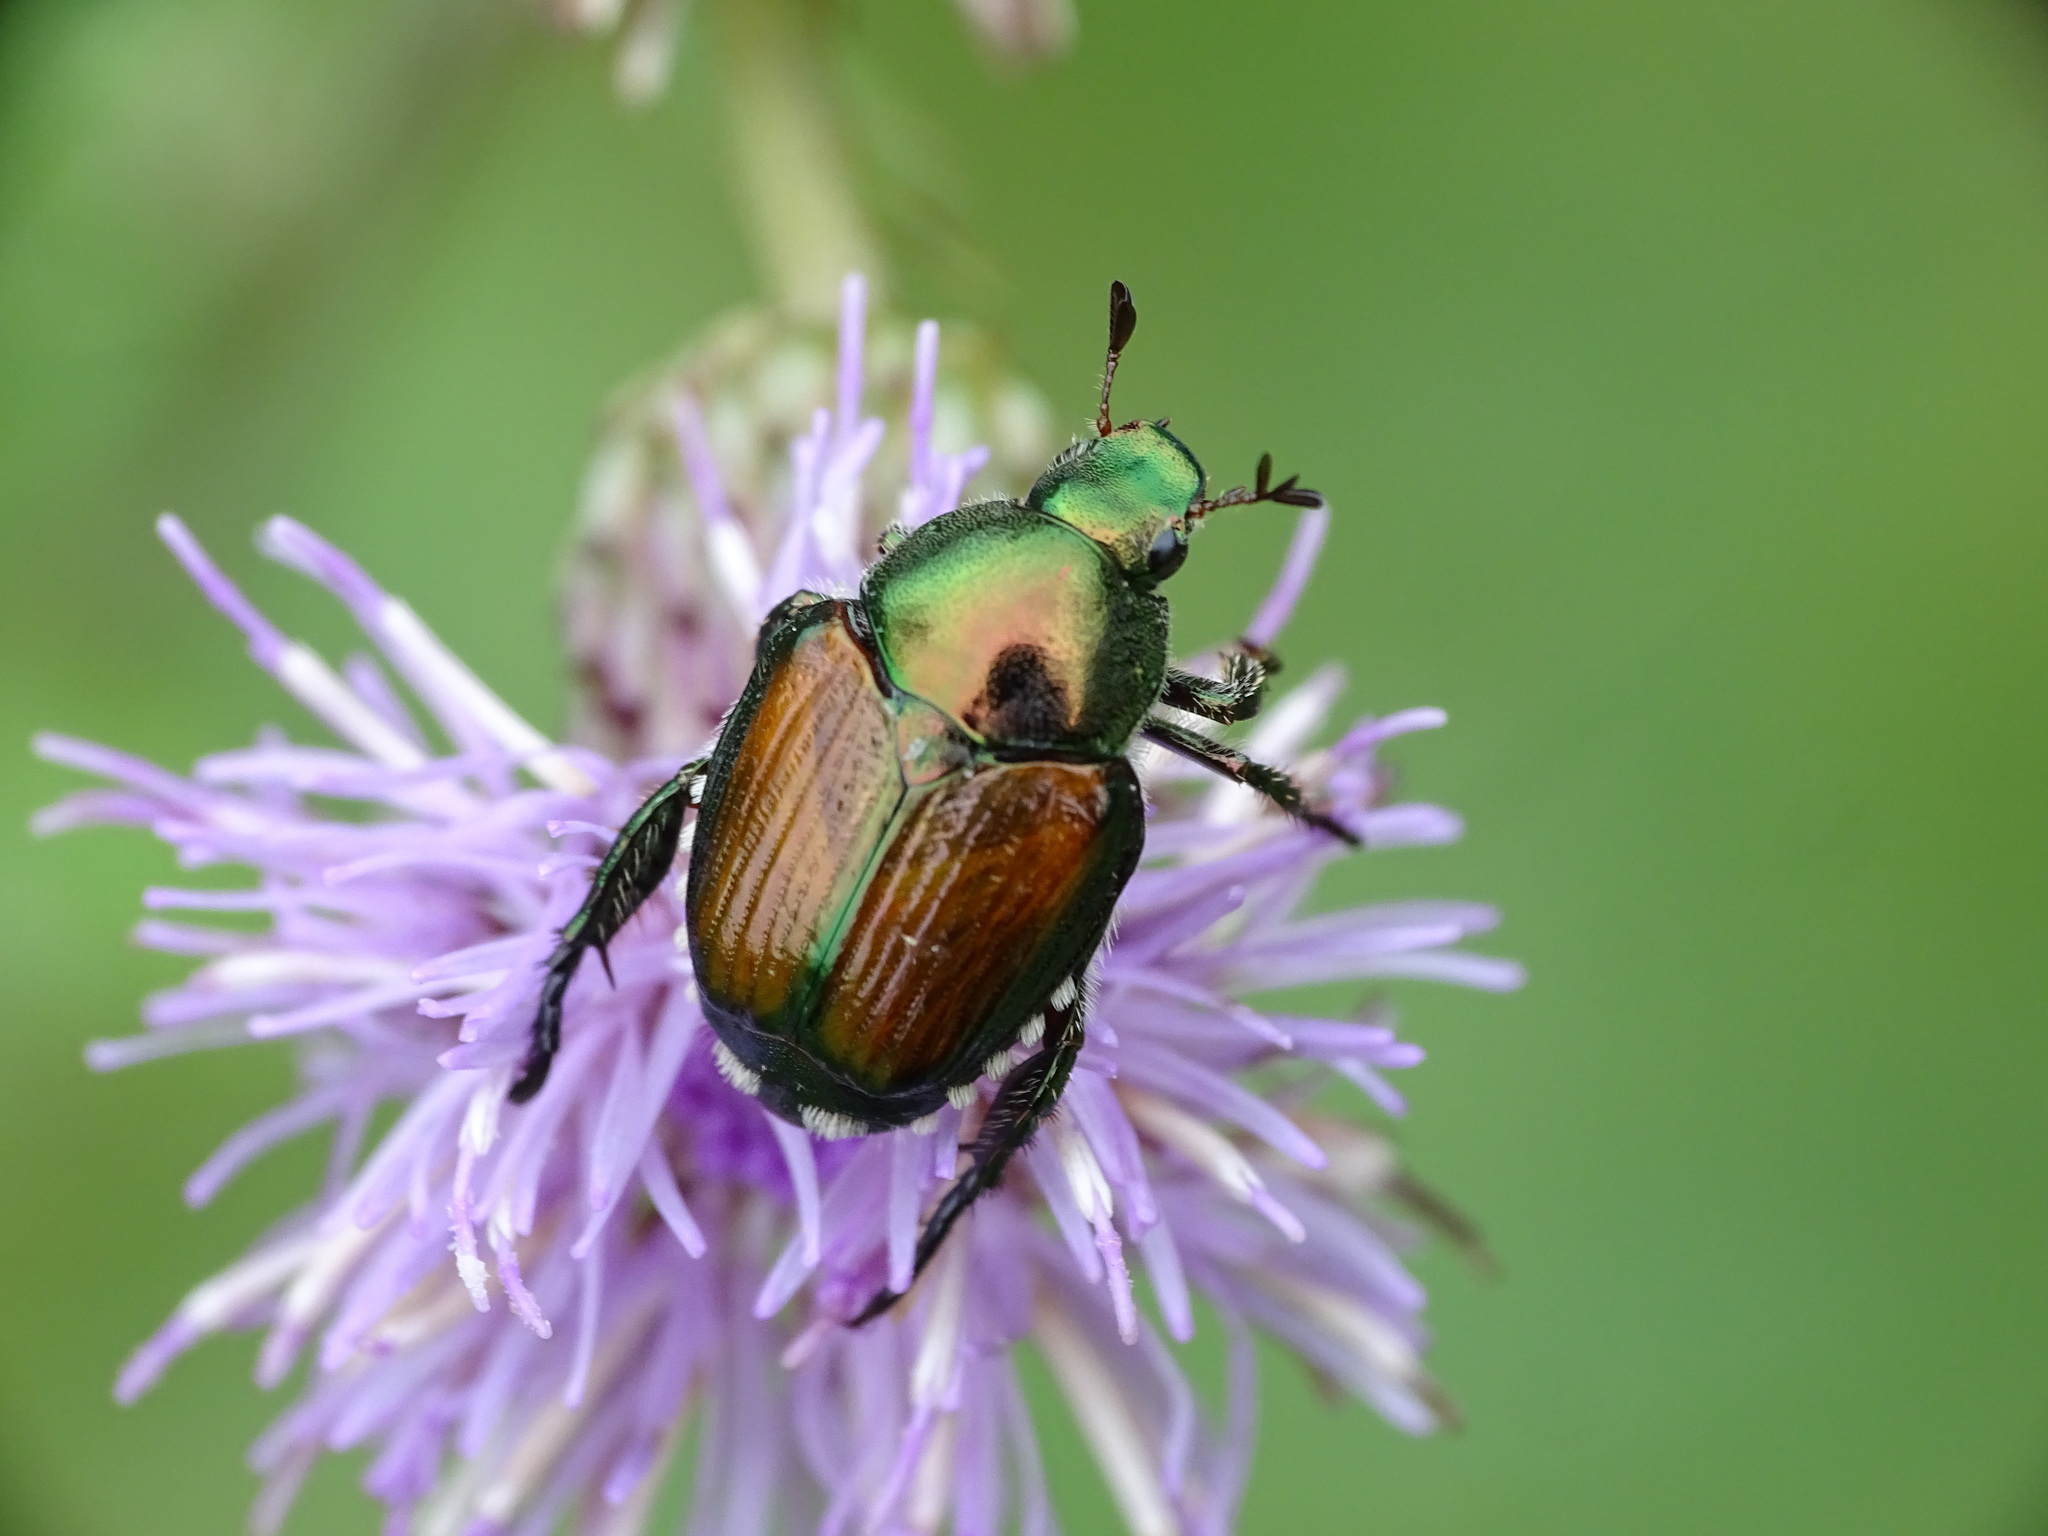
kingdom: Animalia
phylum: Arthropoda
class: Insecta
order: Coleoptera
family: Scarabaeidae
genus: Popillia
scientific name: Popillia japonica
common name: Japanese beetle
